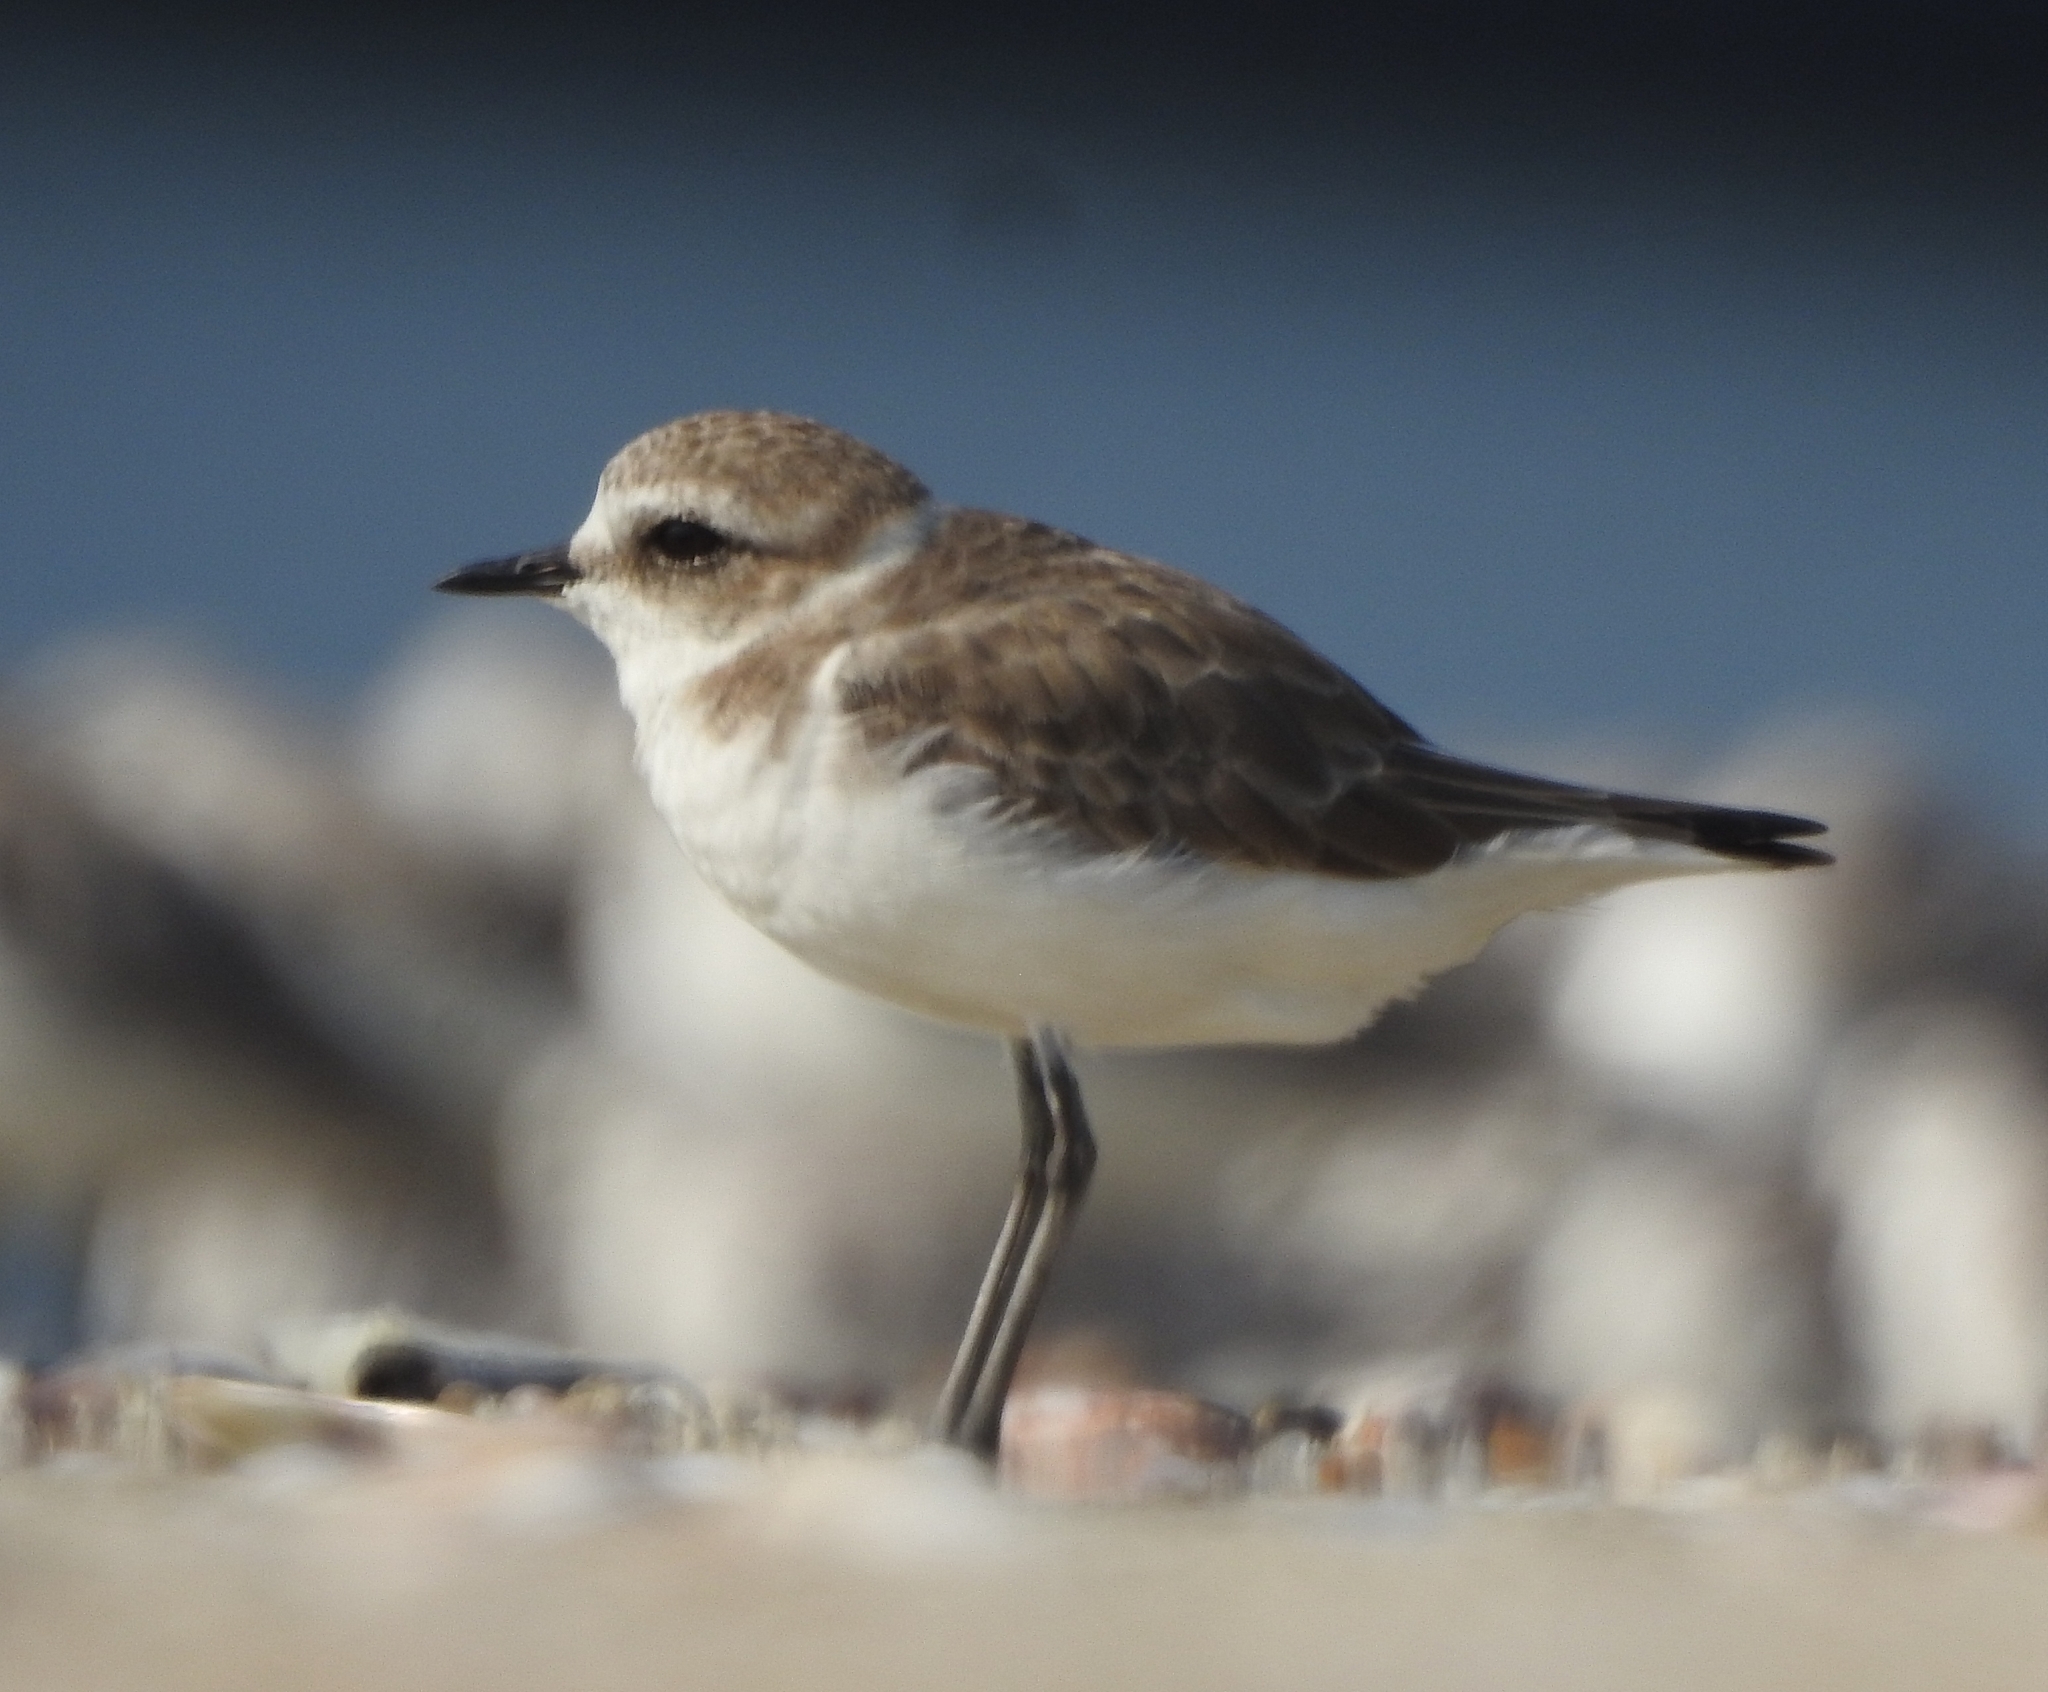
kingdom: Animalia
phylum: Chordata
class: Aves
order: Charadriiformes
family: Charadriidae
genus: Charadrius
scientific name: Charadrius alexandrinus
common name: Kentish plover
